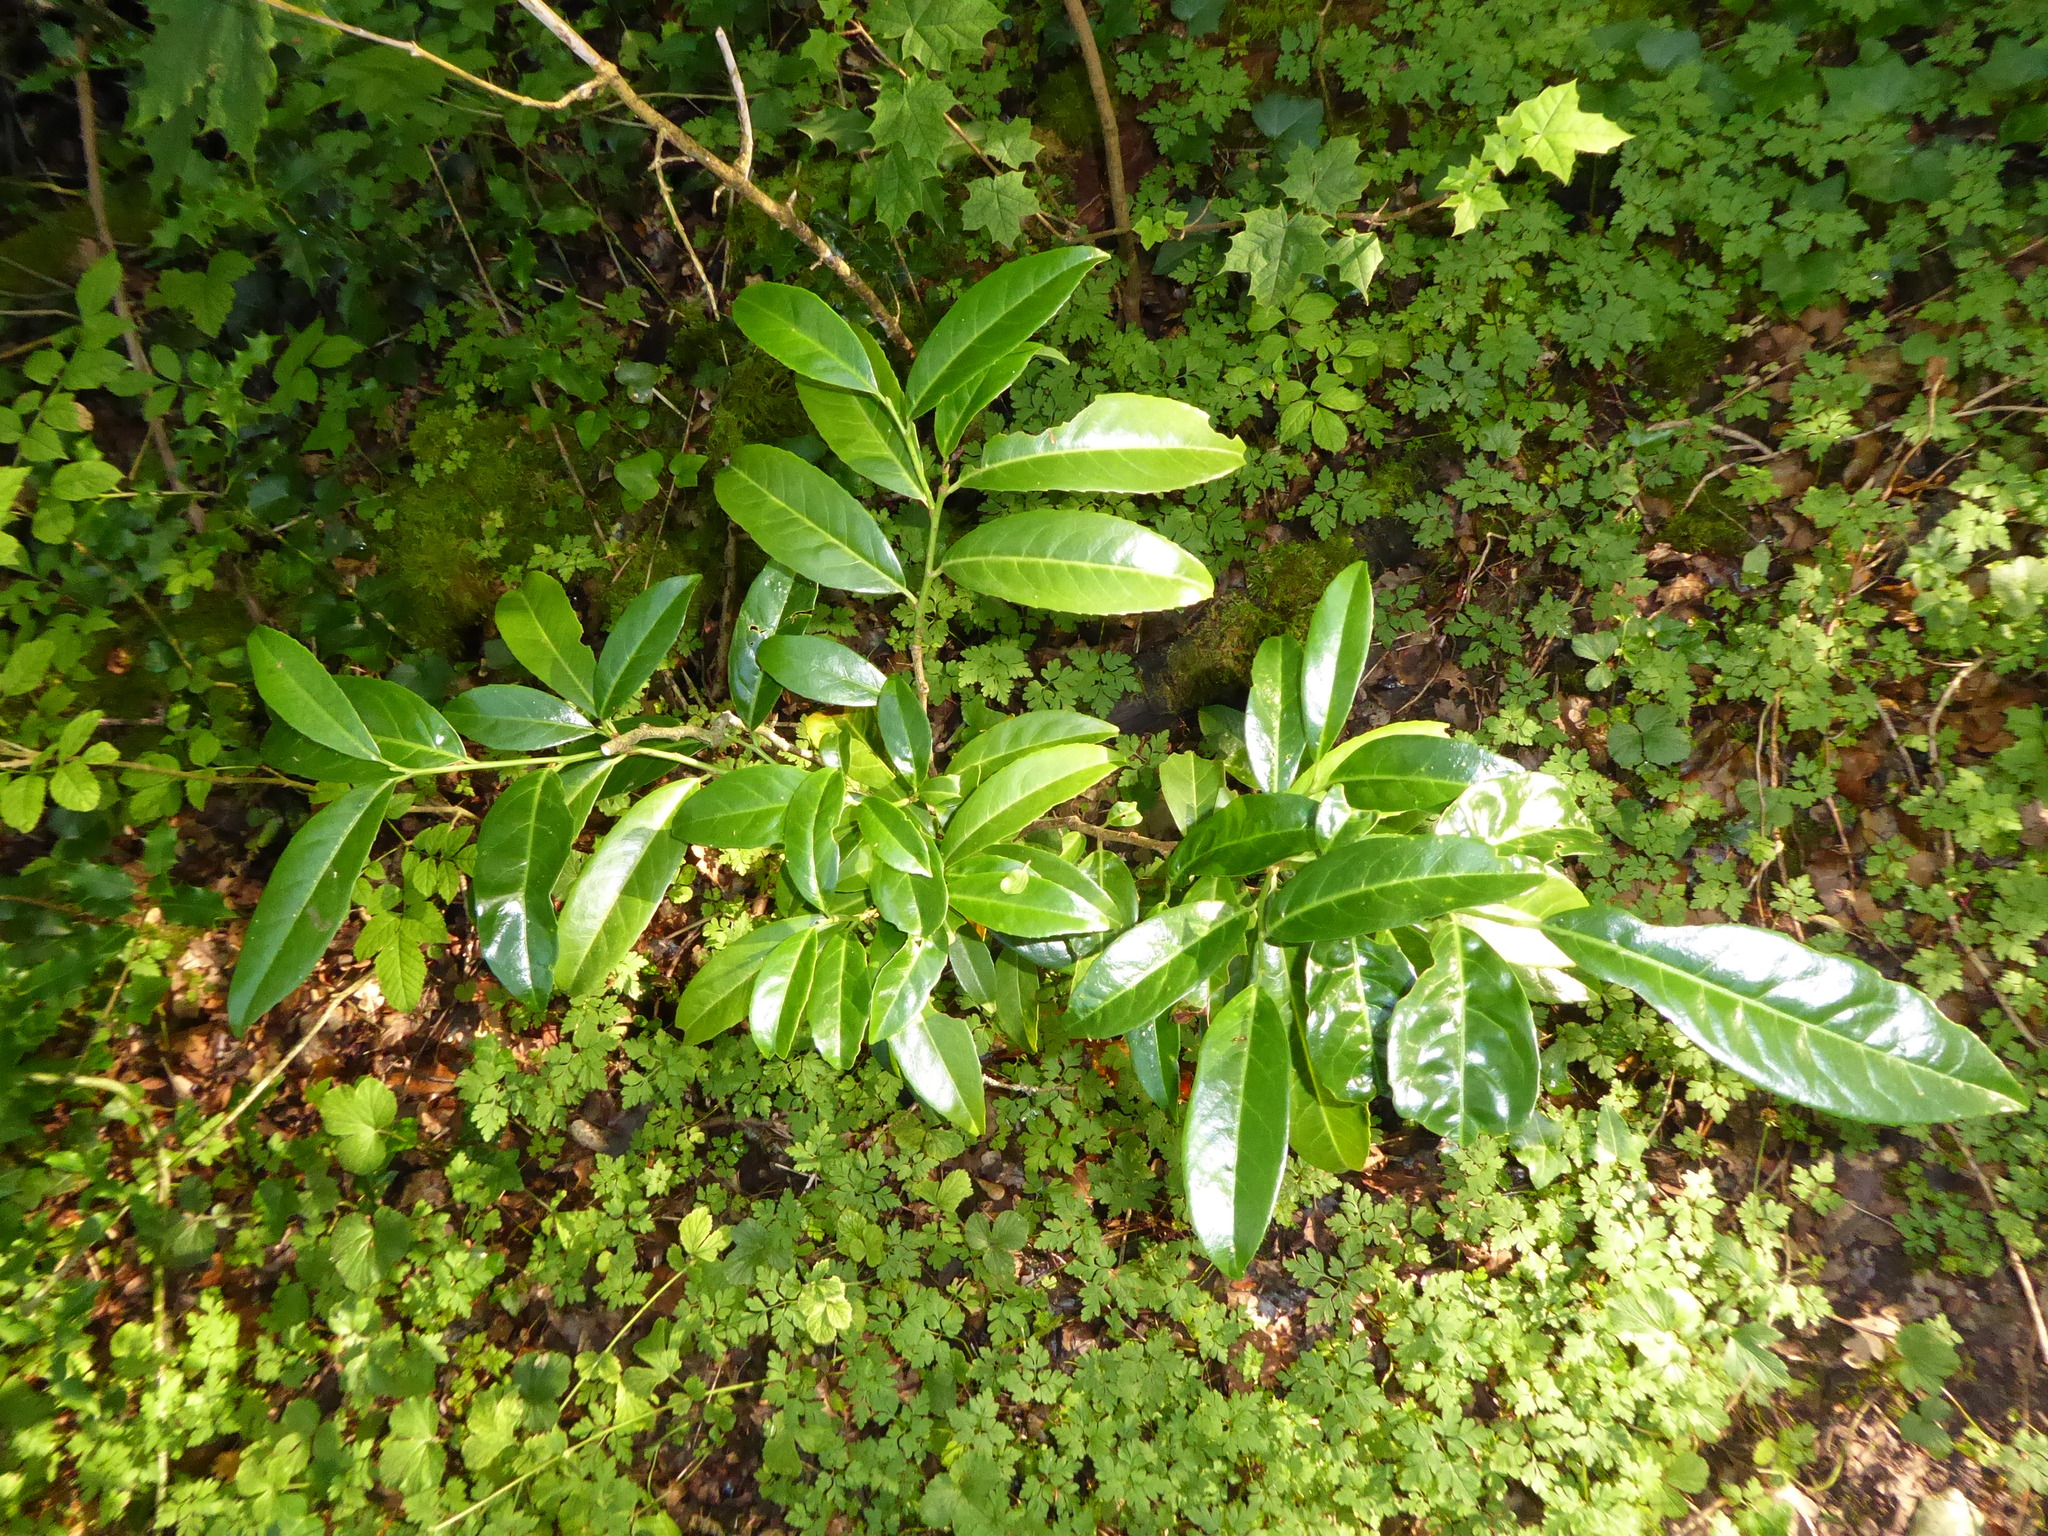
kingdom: Plantae
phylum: Tracheophyta
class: Magnoliopsida
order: Rosales
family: Rosaceae
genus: Prunus
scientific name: Prunus laurocerasus
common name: Cherry laurel
